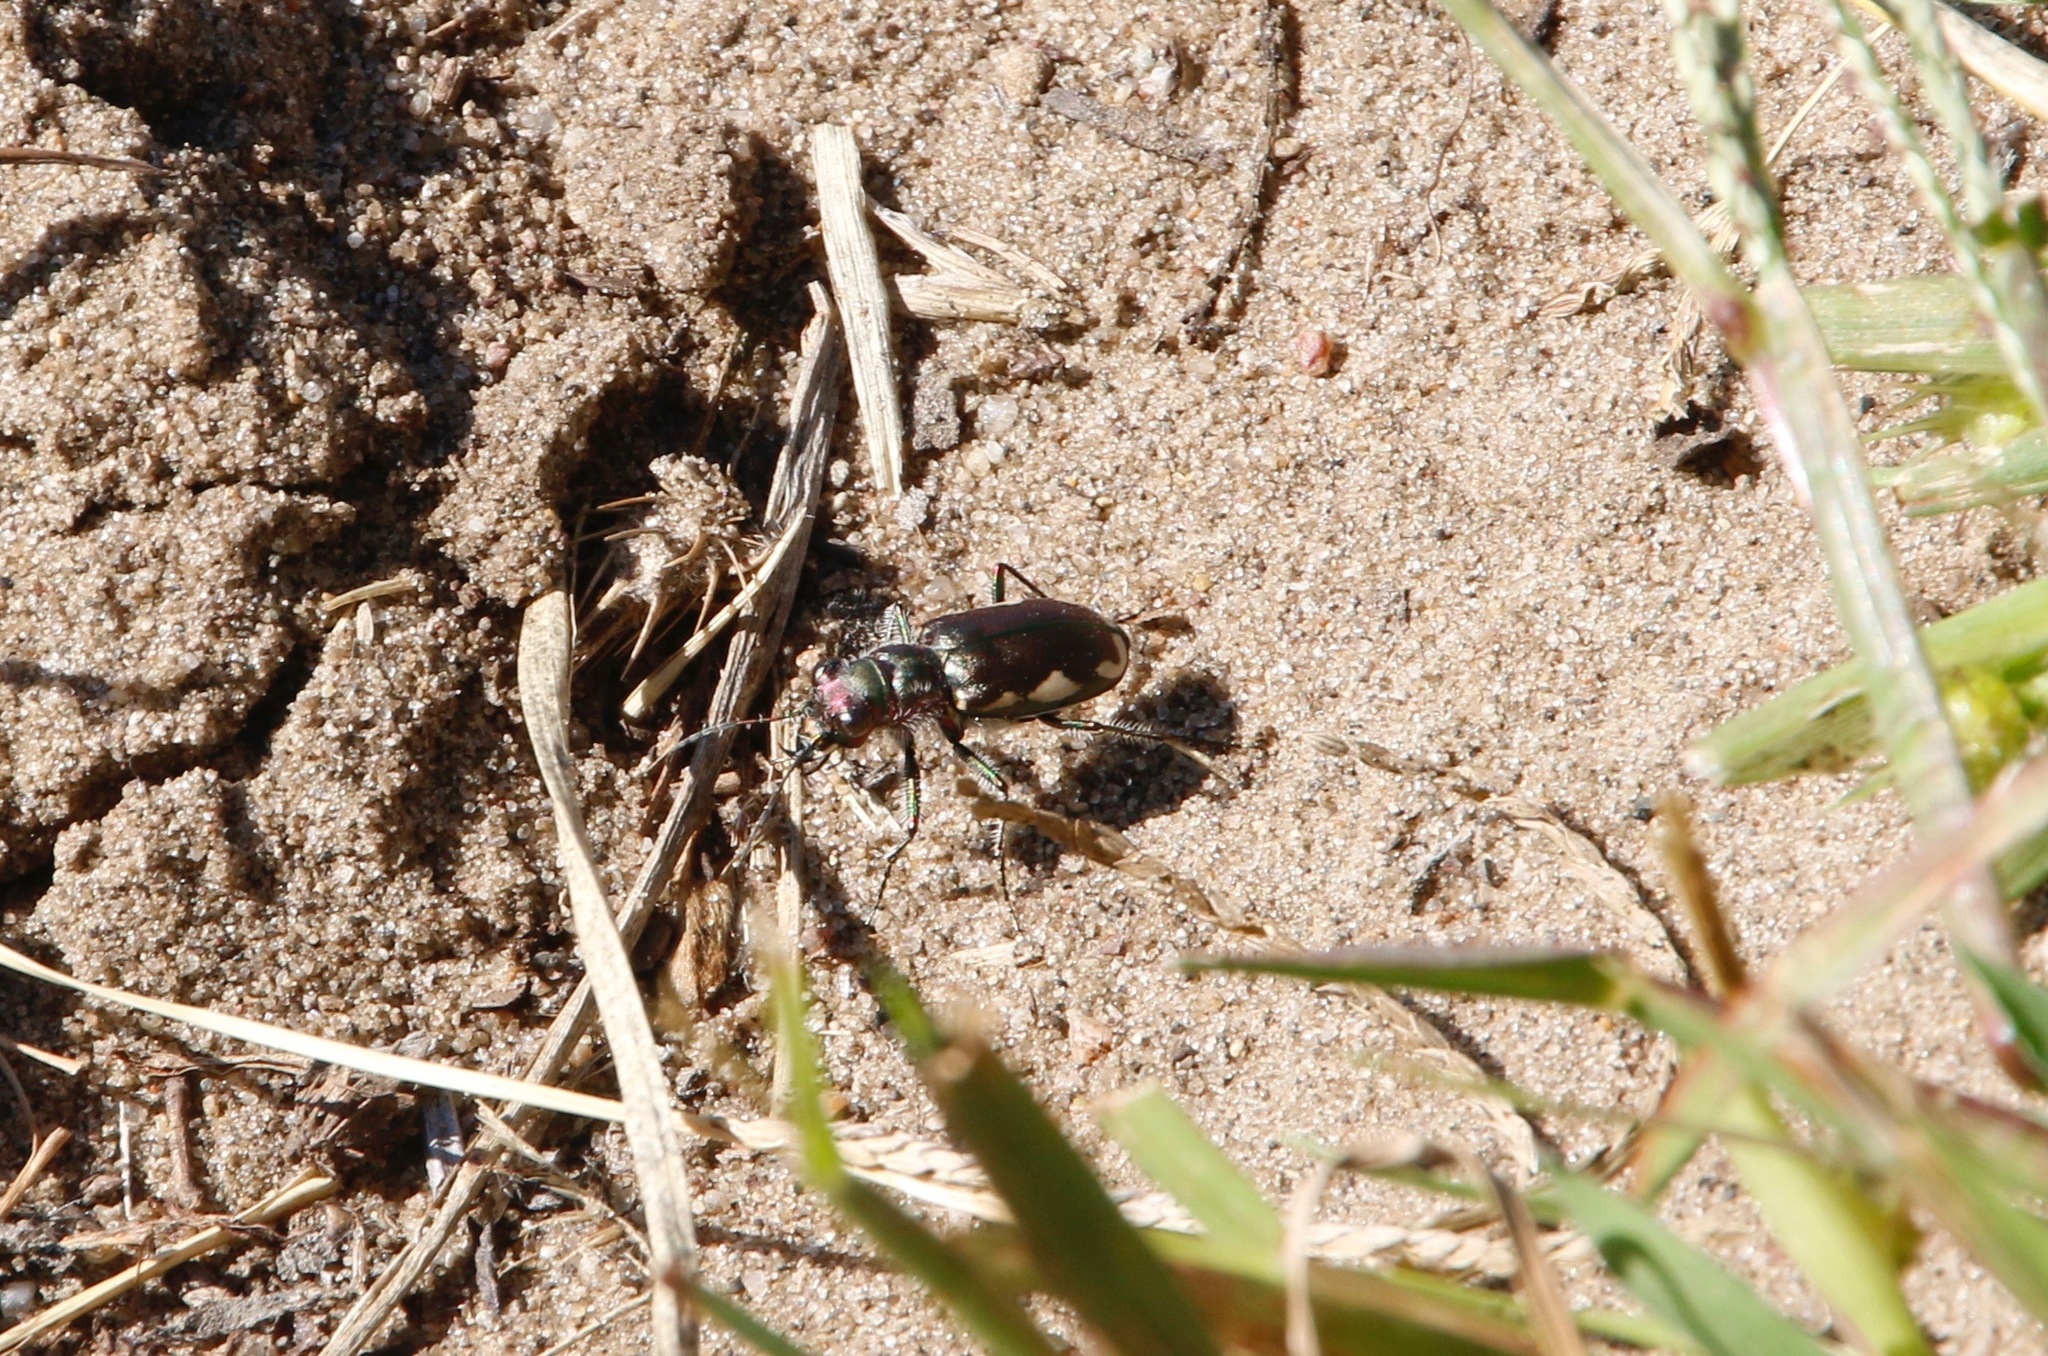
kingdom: Animalia
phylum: Arthropoda
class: Insecta
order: Coleoptera
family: Carabidae
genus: Cicindela
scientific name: Cicindela scutellaris
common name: Festive tiger beetle
